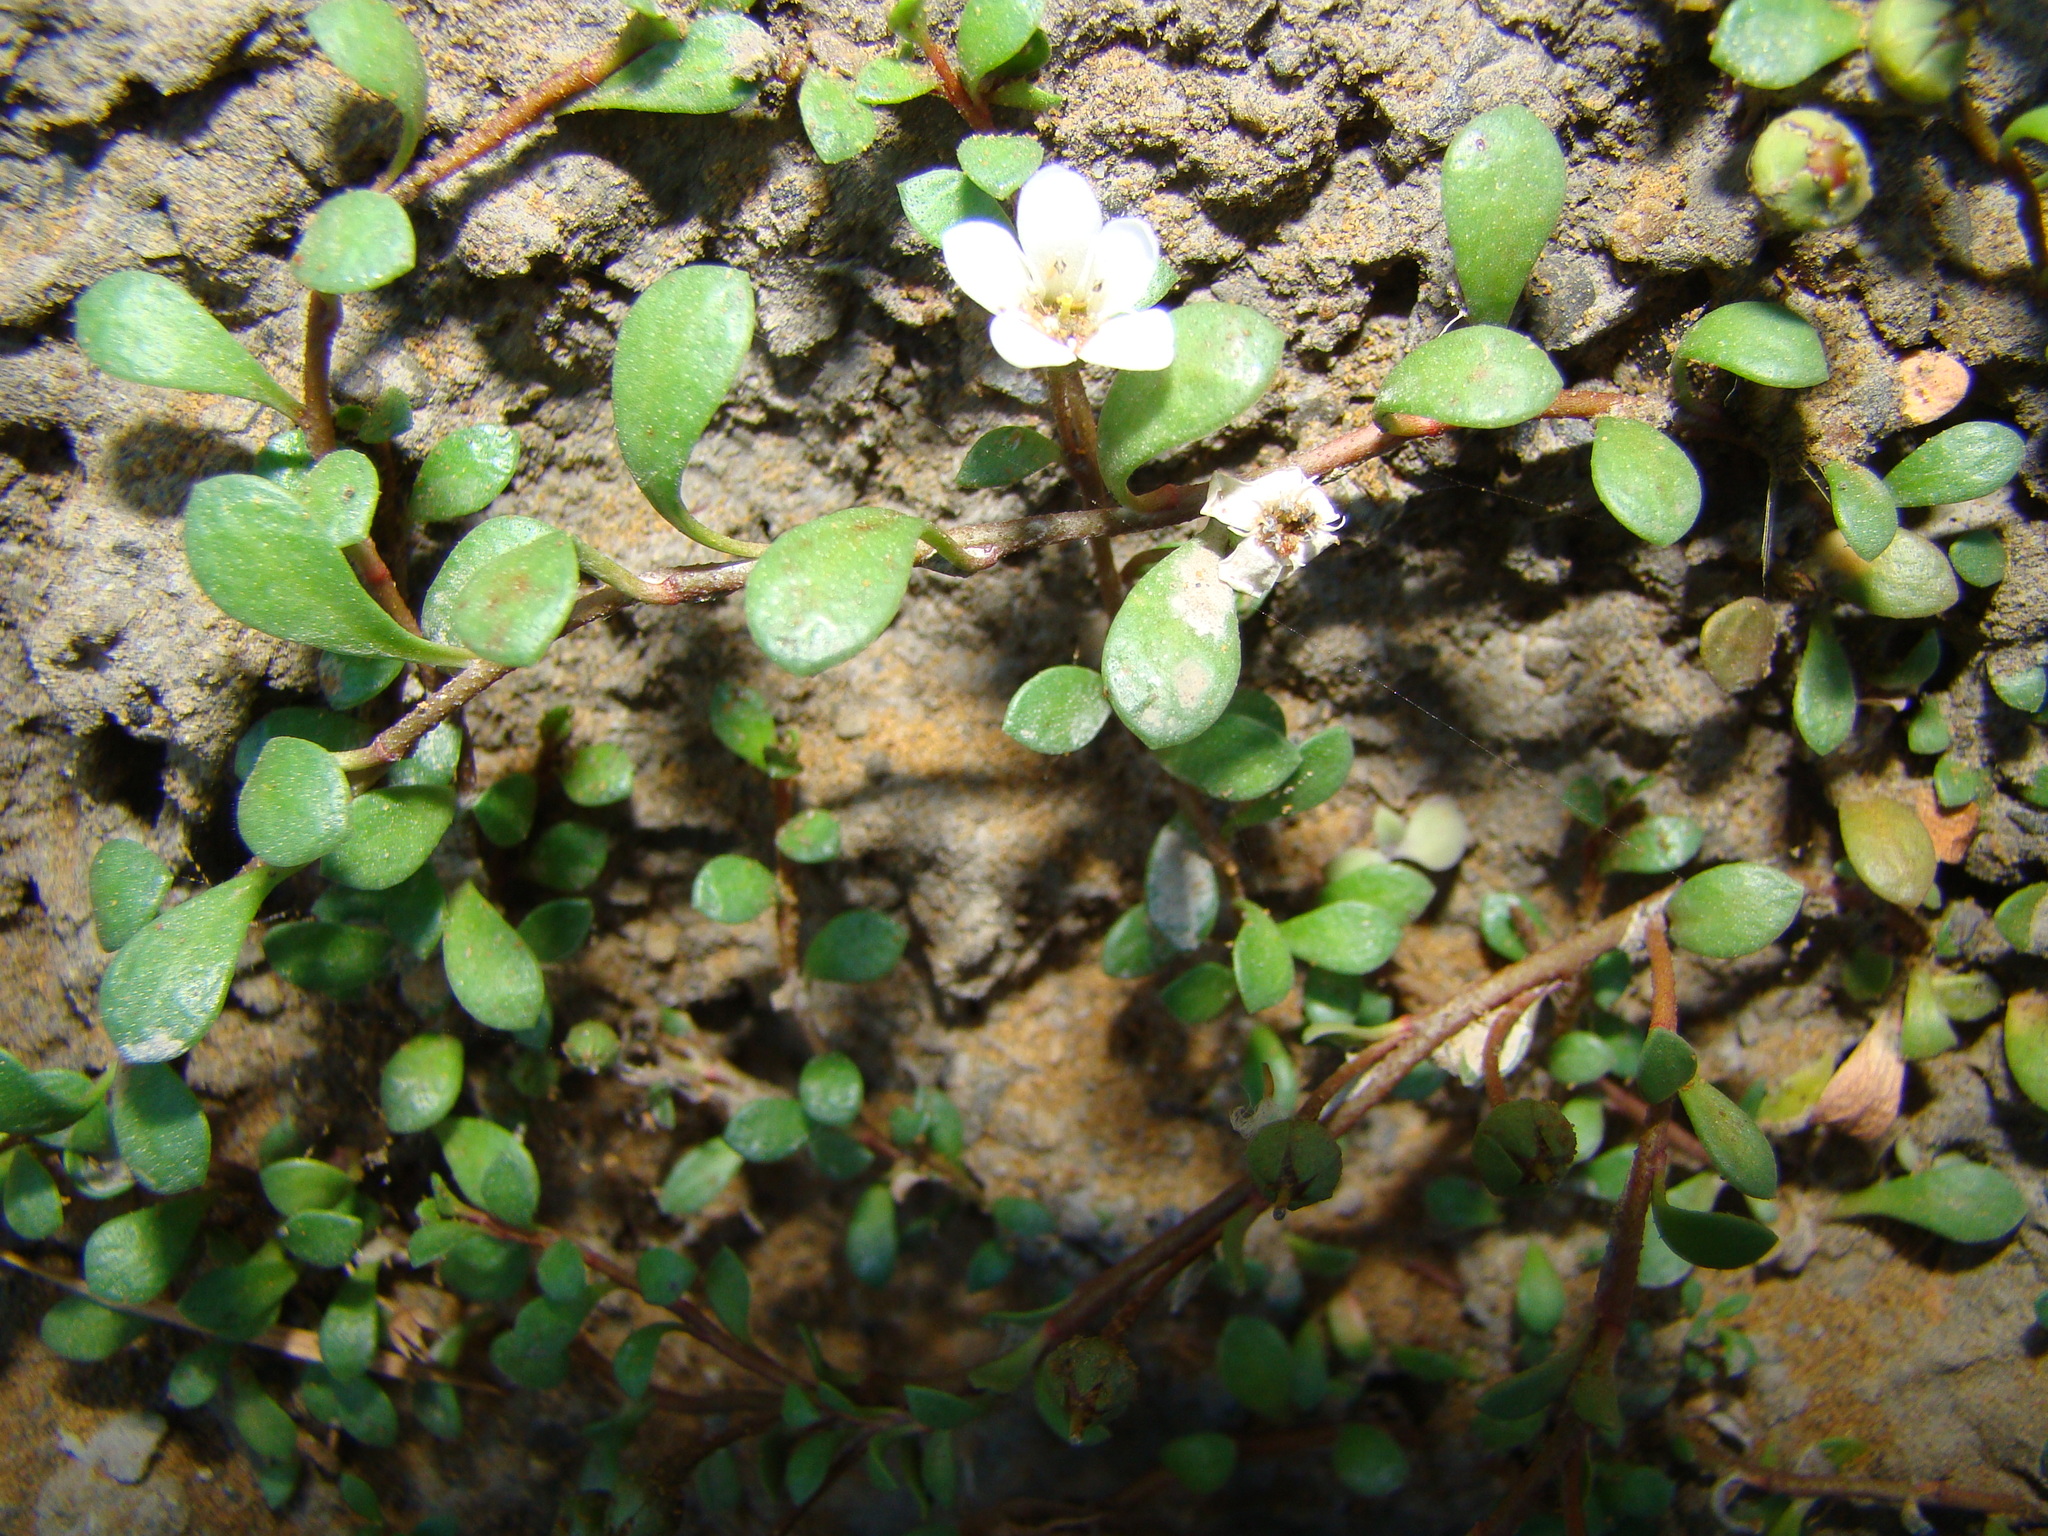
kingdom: Plantae
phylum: Tracheophyta
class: Magnoliopsida
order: Ericales
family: Primulaceae
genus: Samolus
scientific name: Samolus repens
